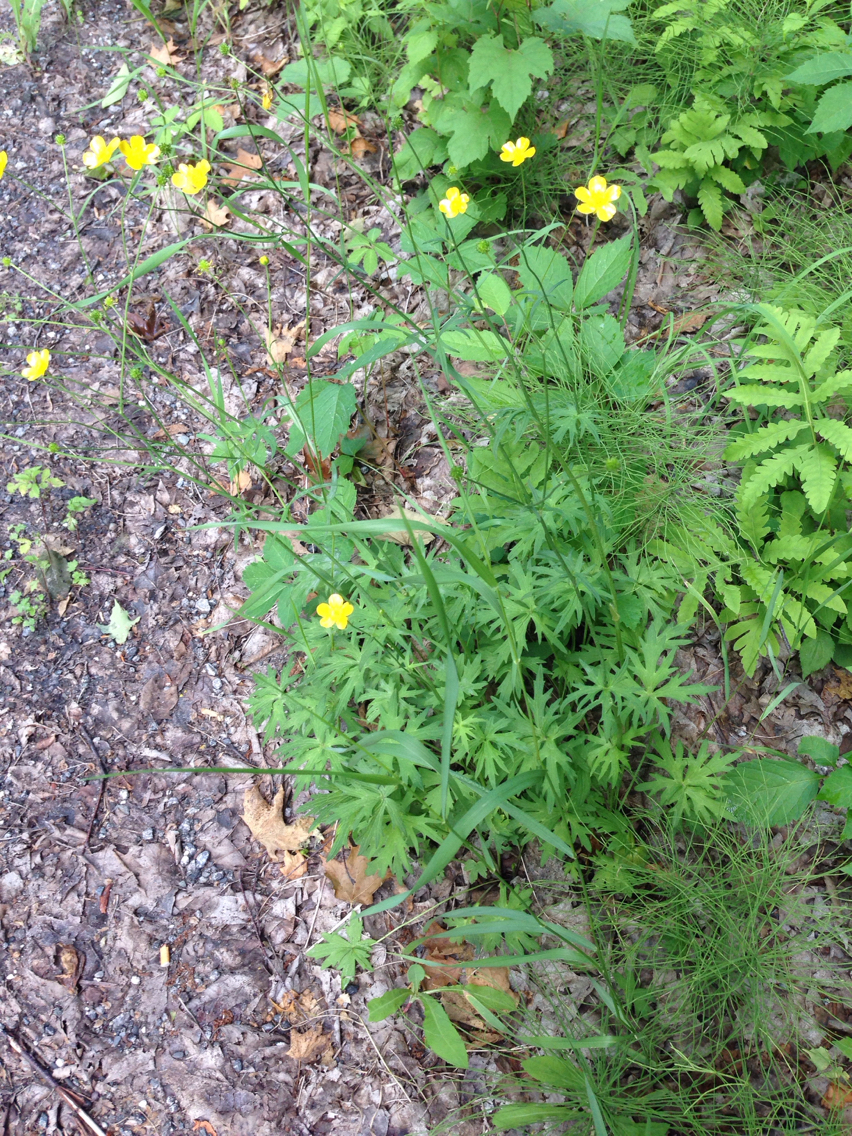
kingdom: Plantae
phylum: Tracheophyta
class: Magnoliopsida
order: Ranunculales
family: Ranunculaceae
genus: Ranunculus
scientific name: Ranunculus acris
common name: Meadow buttercup
